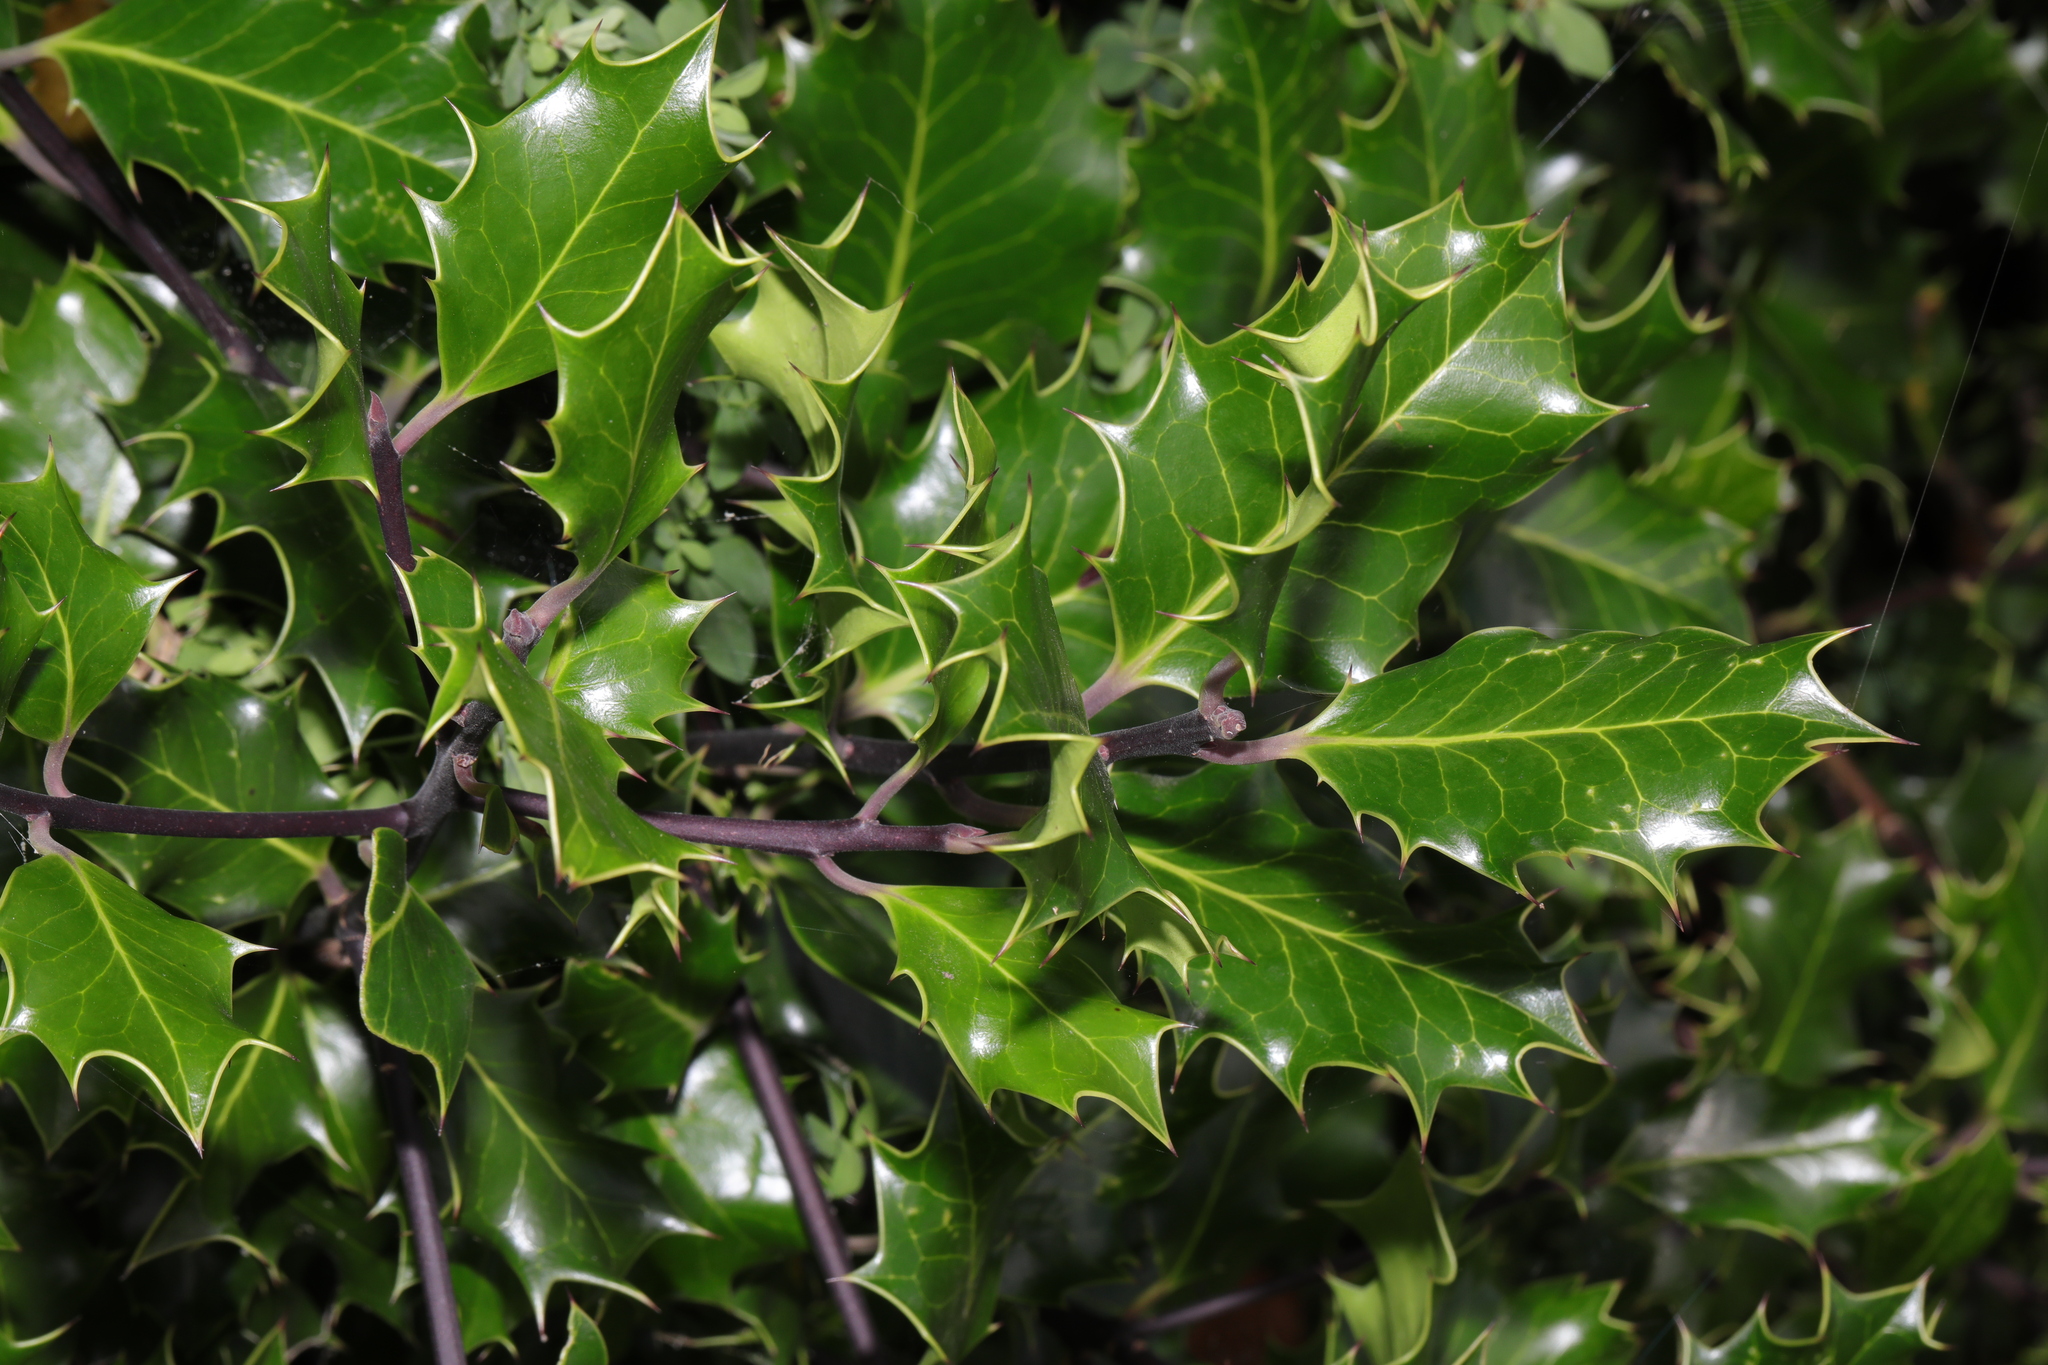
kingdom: Plantae
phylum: Tracheophyta
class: Magnoliopsida
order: Aquifoliales
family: Aquifoliaceae
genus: Ilex
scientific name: Ilex aquifolium
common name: English holly
